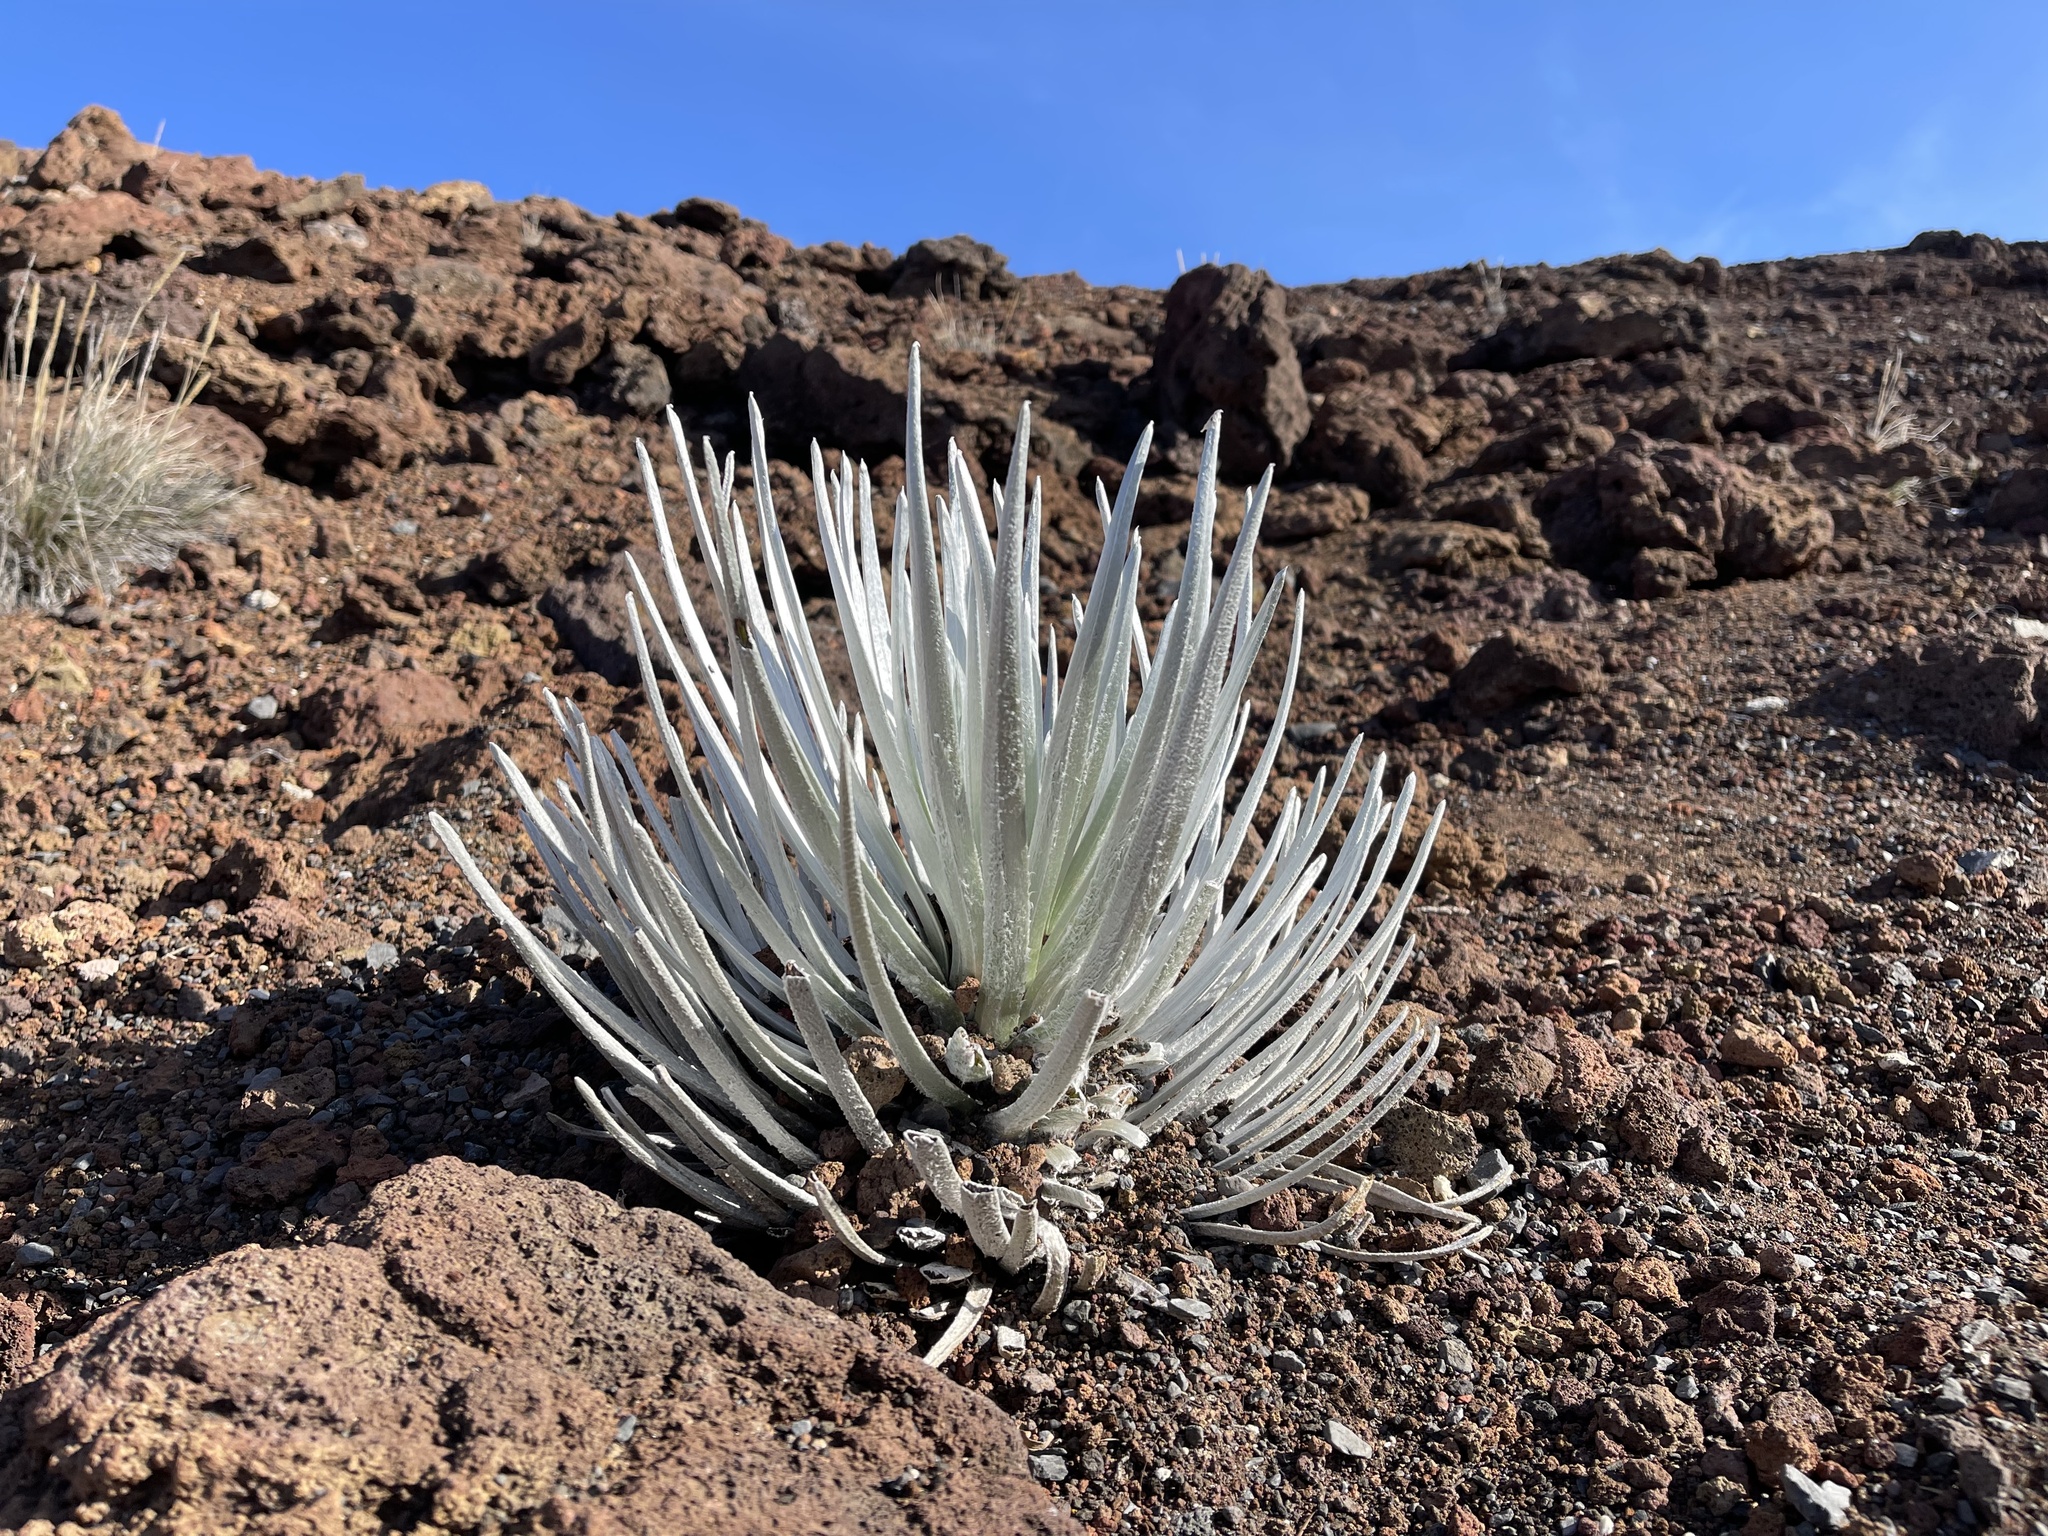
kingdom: Plantae
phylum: Tracheophyta
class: Magnoliopsida
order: Asterales
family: Asteraceae
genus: Argyroxiphium
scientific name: Argyroxiphium sandwicense
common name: Silversword
